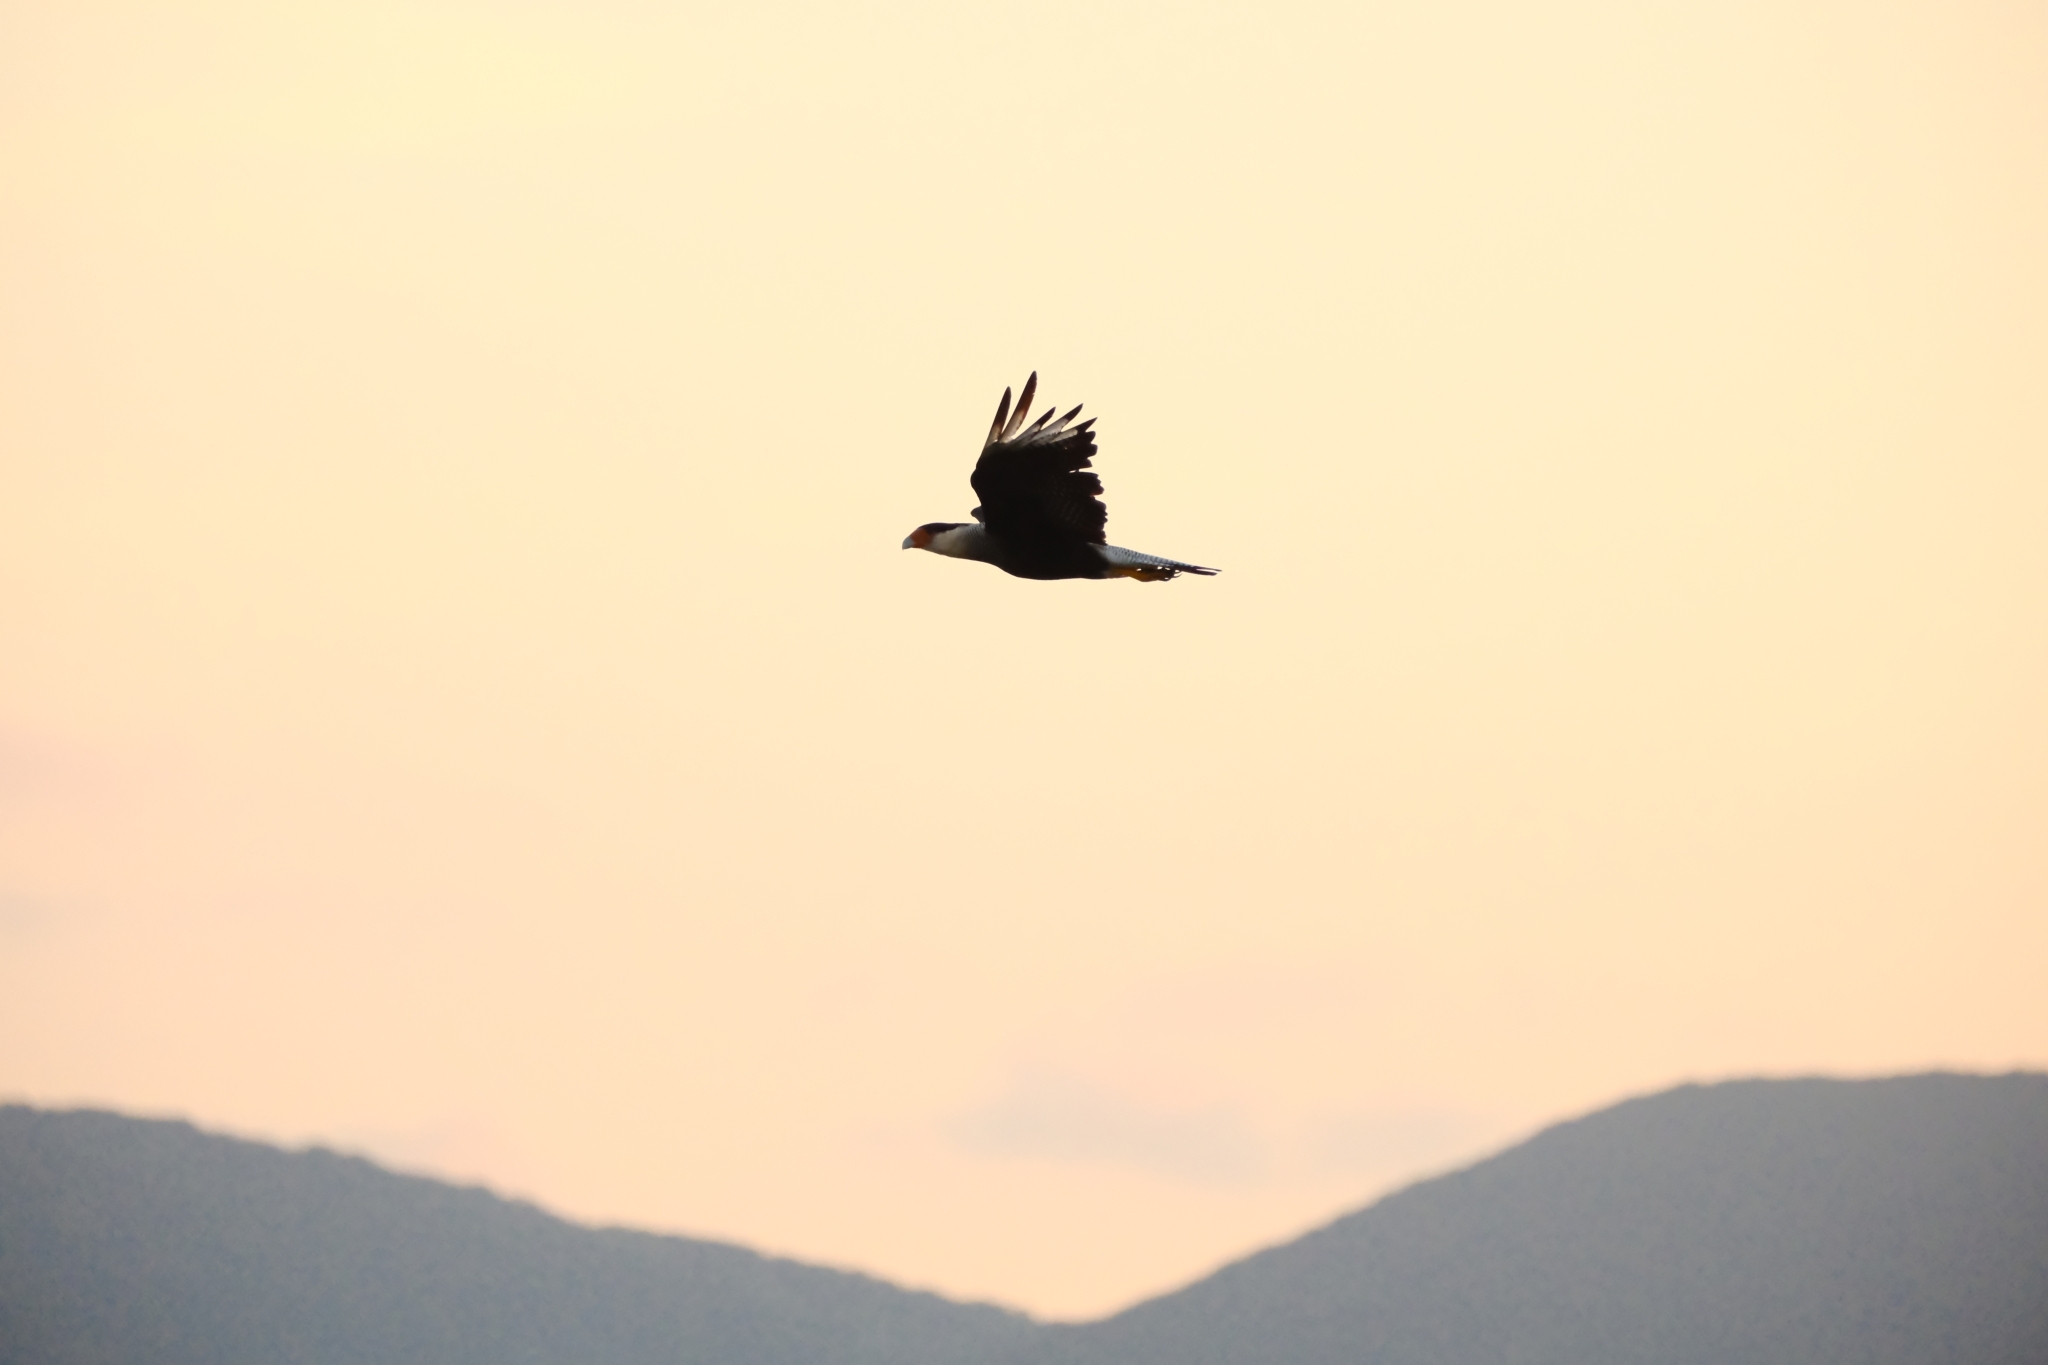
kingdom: Animalia
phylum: Chordata
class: Aves
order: Falconiformes
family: Falconidae
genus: Caracara
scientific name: Caracara plancus
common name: Southern caracara
